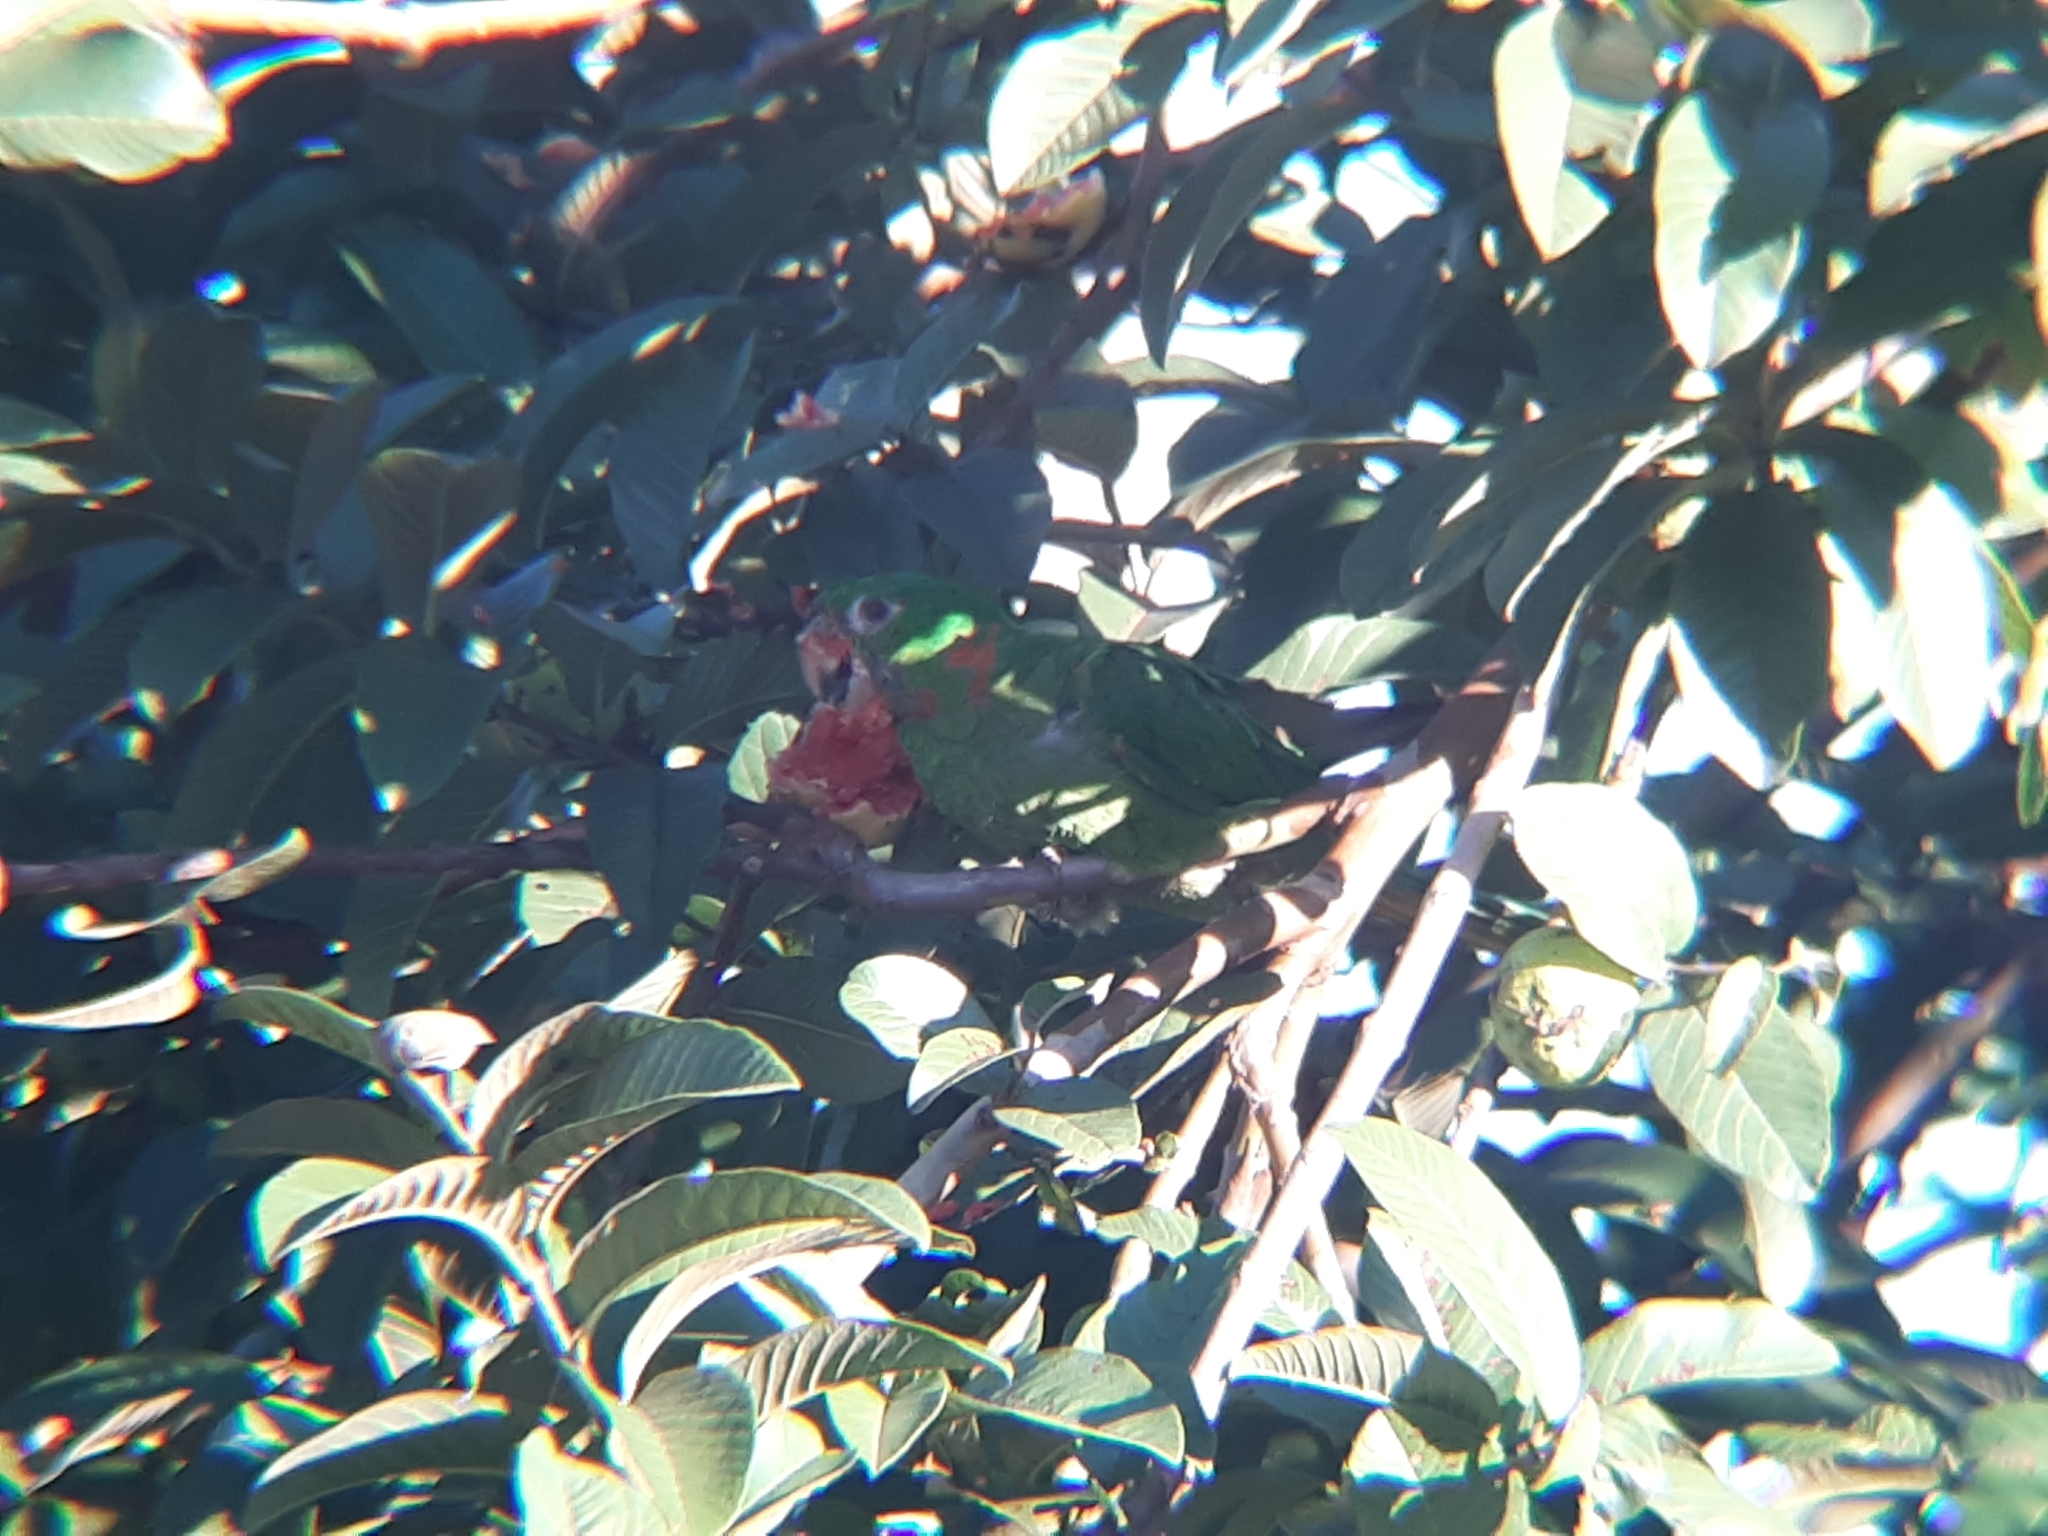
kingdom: Animalia
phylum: Chordata
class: Aves
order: Psittaciformes
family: Psittacidae
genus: Aratinga
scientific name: Aratinga leucophthalma
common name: White-eyed parakeet
